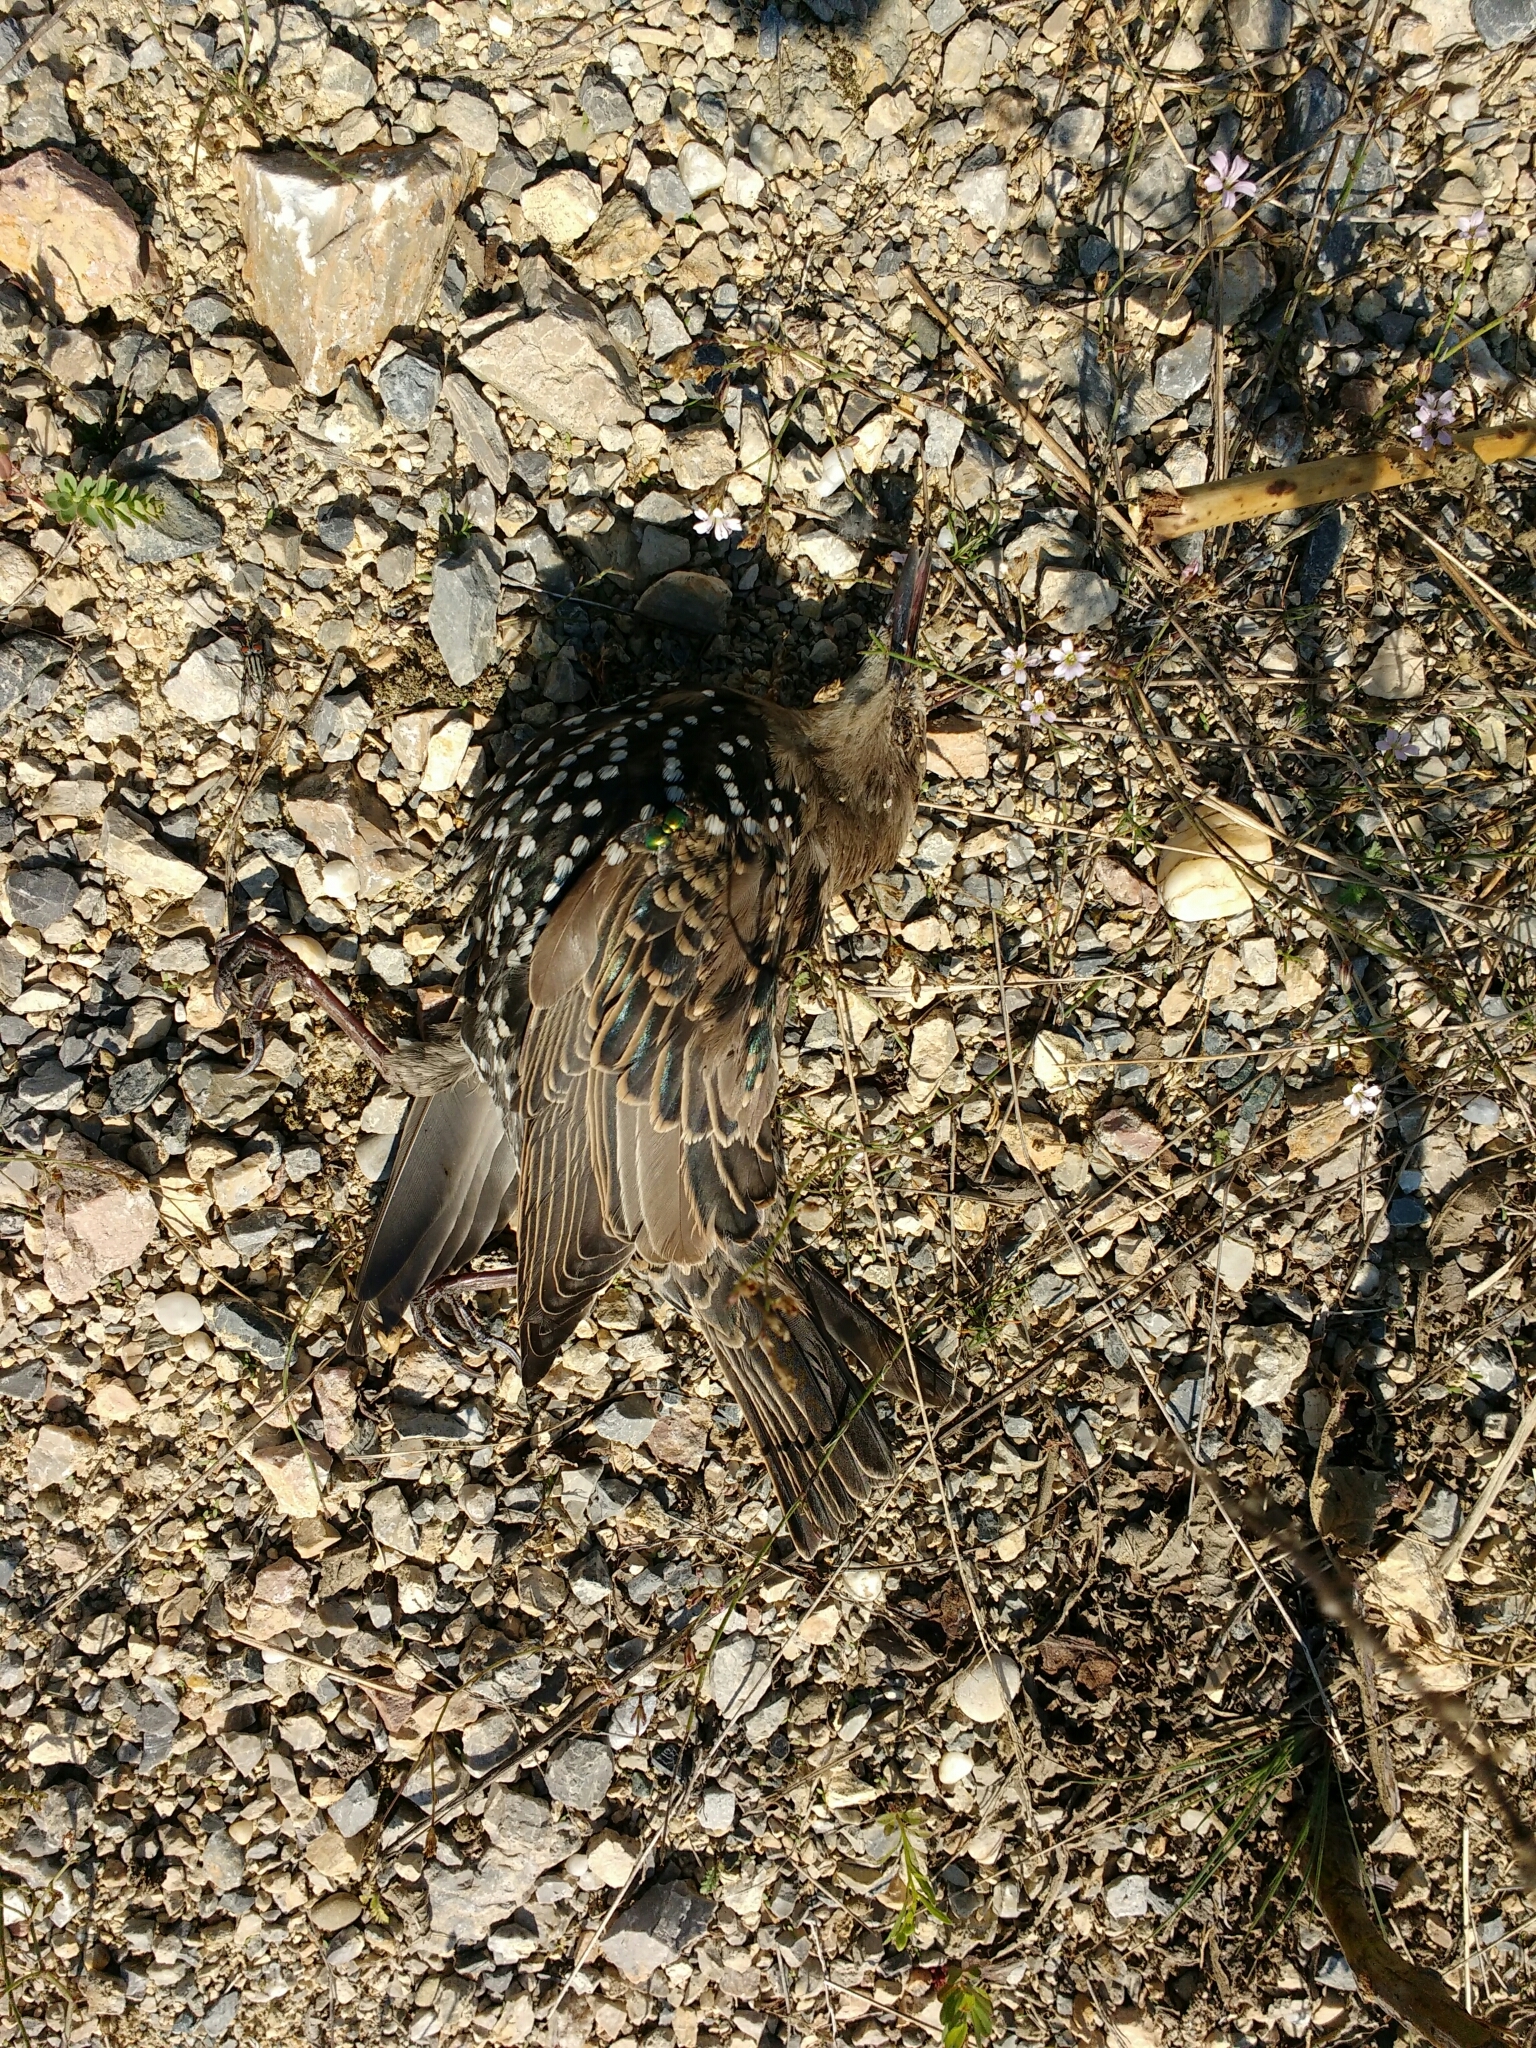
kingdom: Animalia
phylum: Chordata
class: Aves
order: Passeriformes
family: Sturnidae
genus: Sturnus
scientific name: Sturnus vulgaris
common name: Common starling
